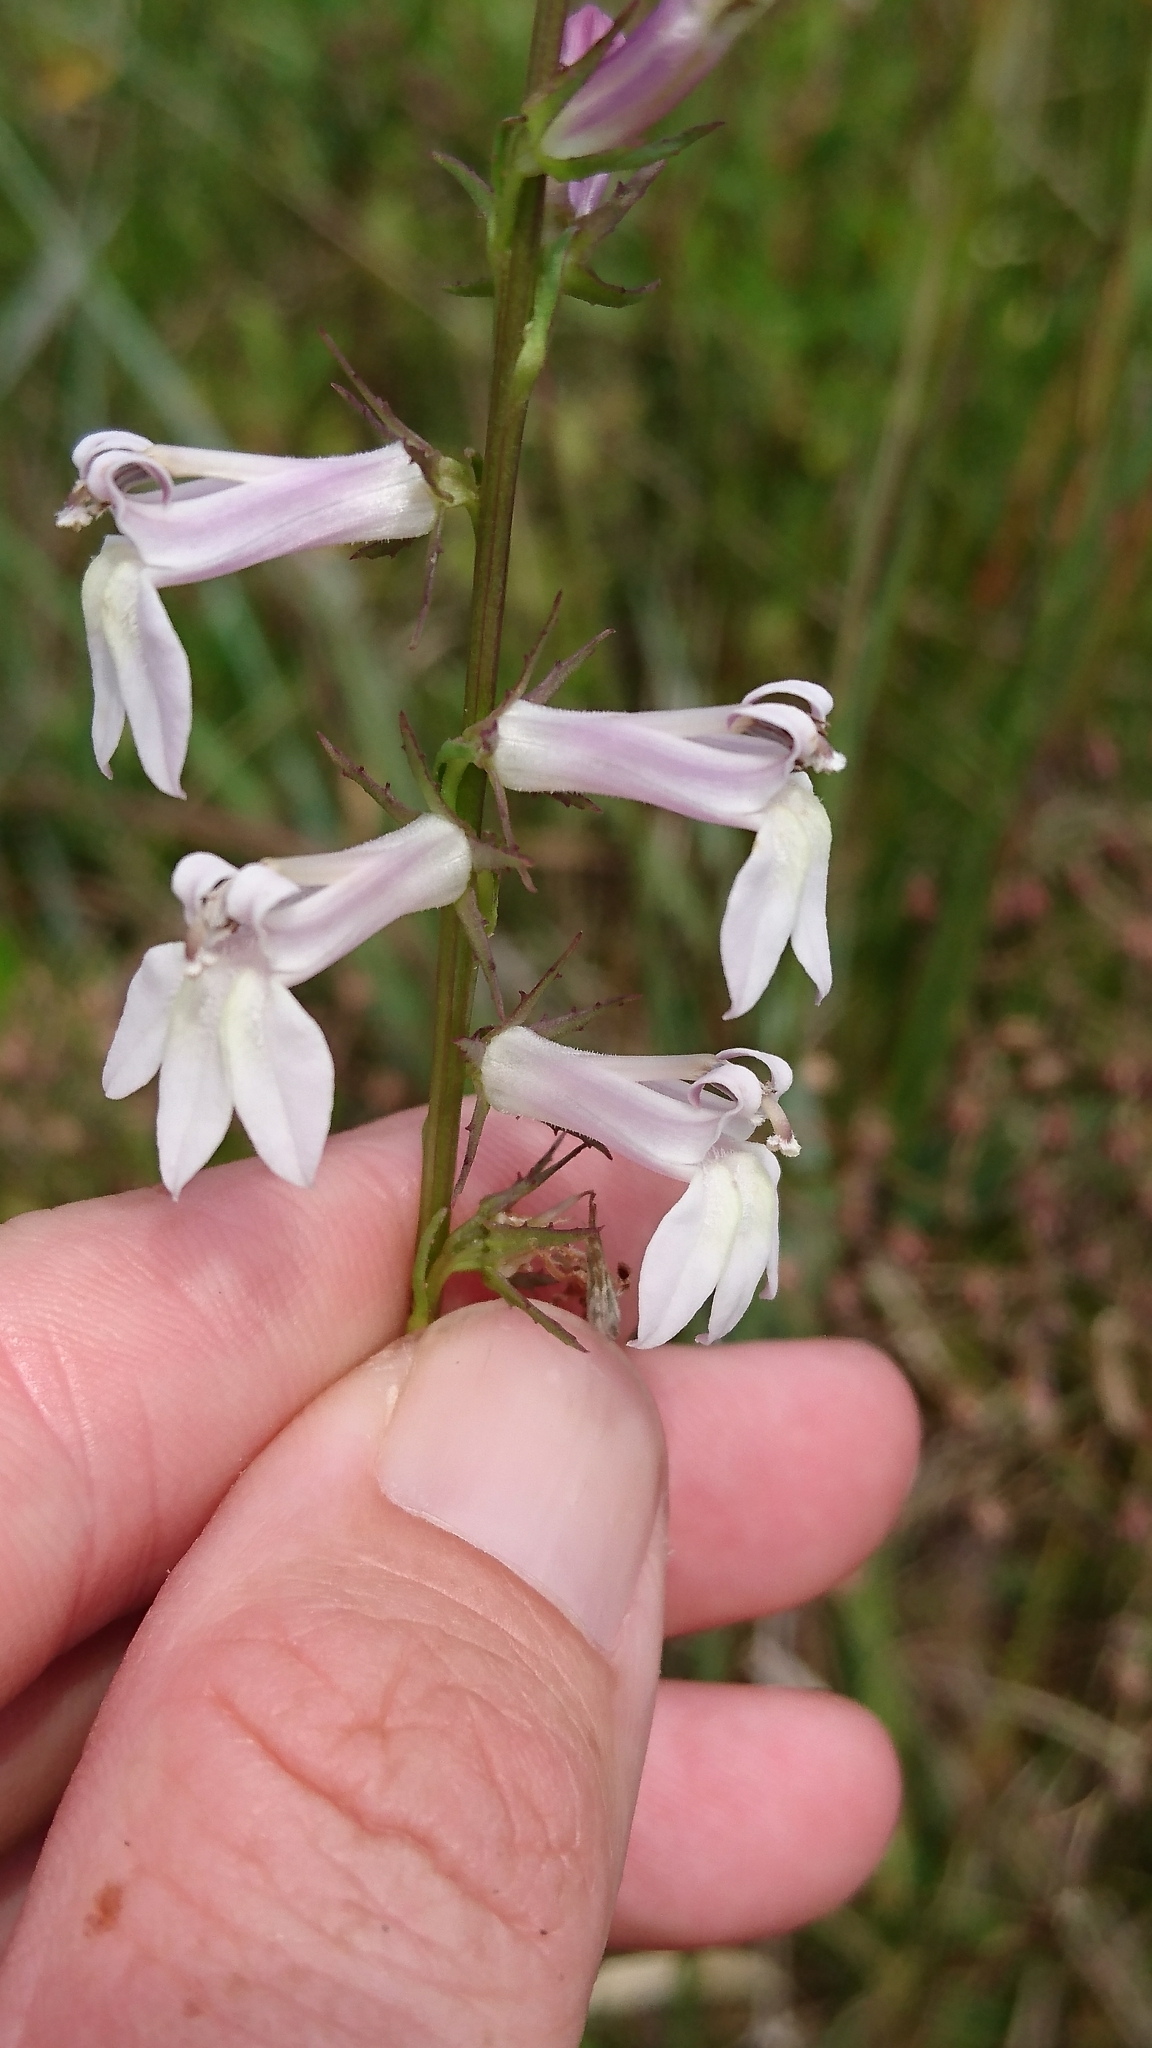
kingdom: Plantae
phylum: Tracheophyta
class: Magnoliopsida
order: Asterales
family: Campanulaceae
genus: Lobelia
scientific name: Lobelia floridana
